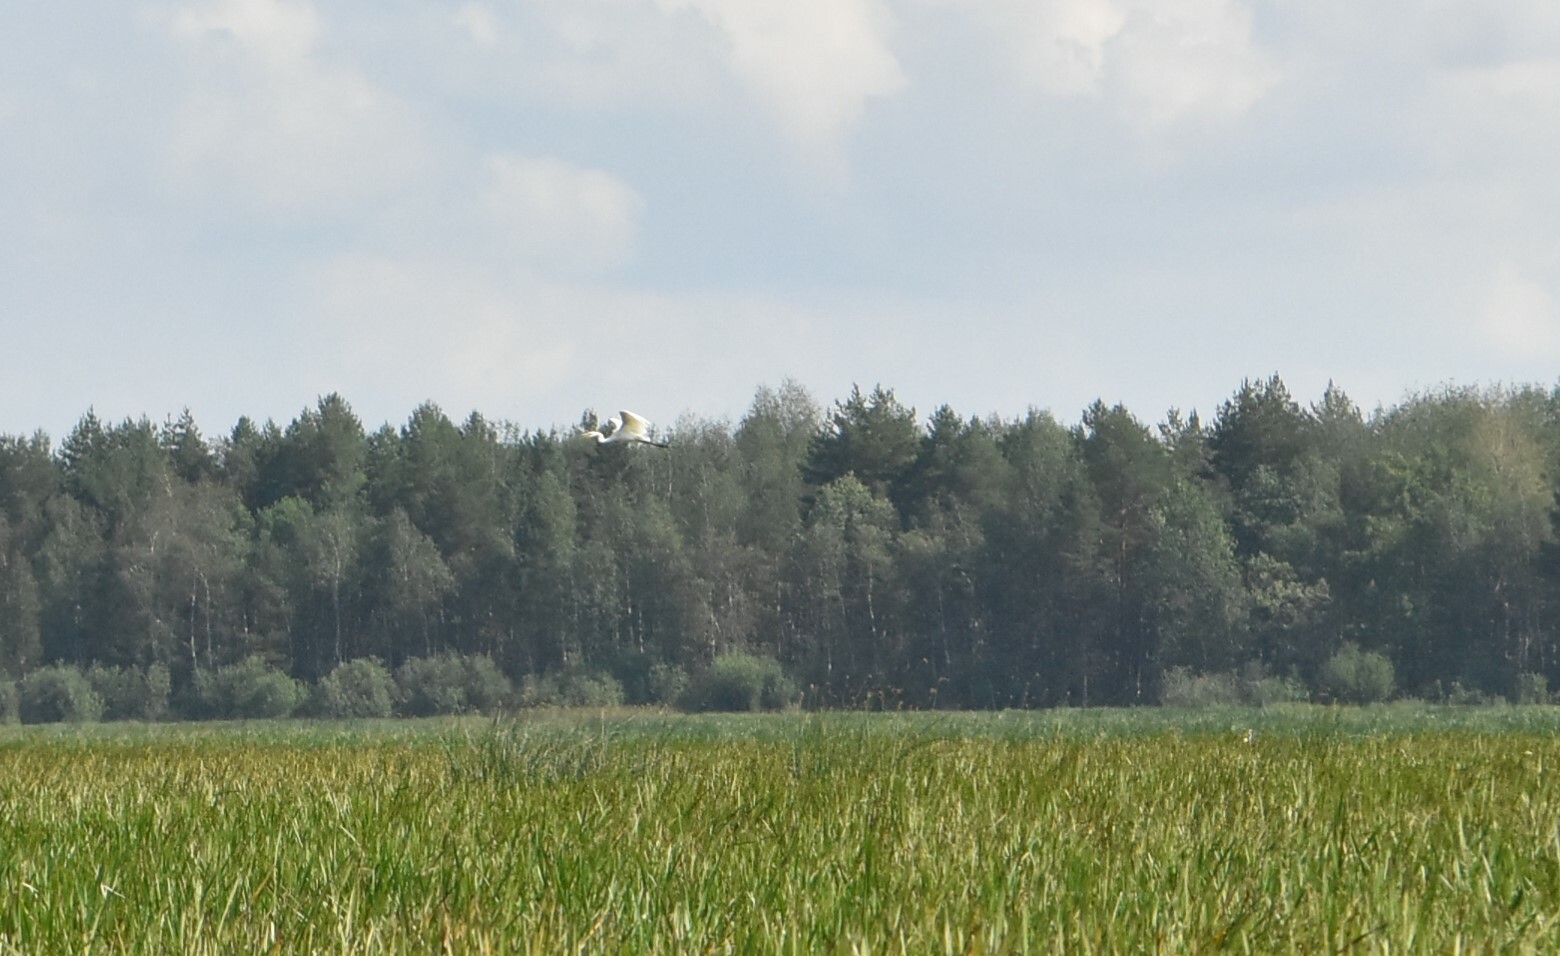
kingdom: Animalia
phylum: Chordata
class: Aves
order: Pelecaniformes
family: Ardeidae
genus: Ardea
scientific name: Ardea alba
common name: Great egret
